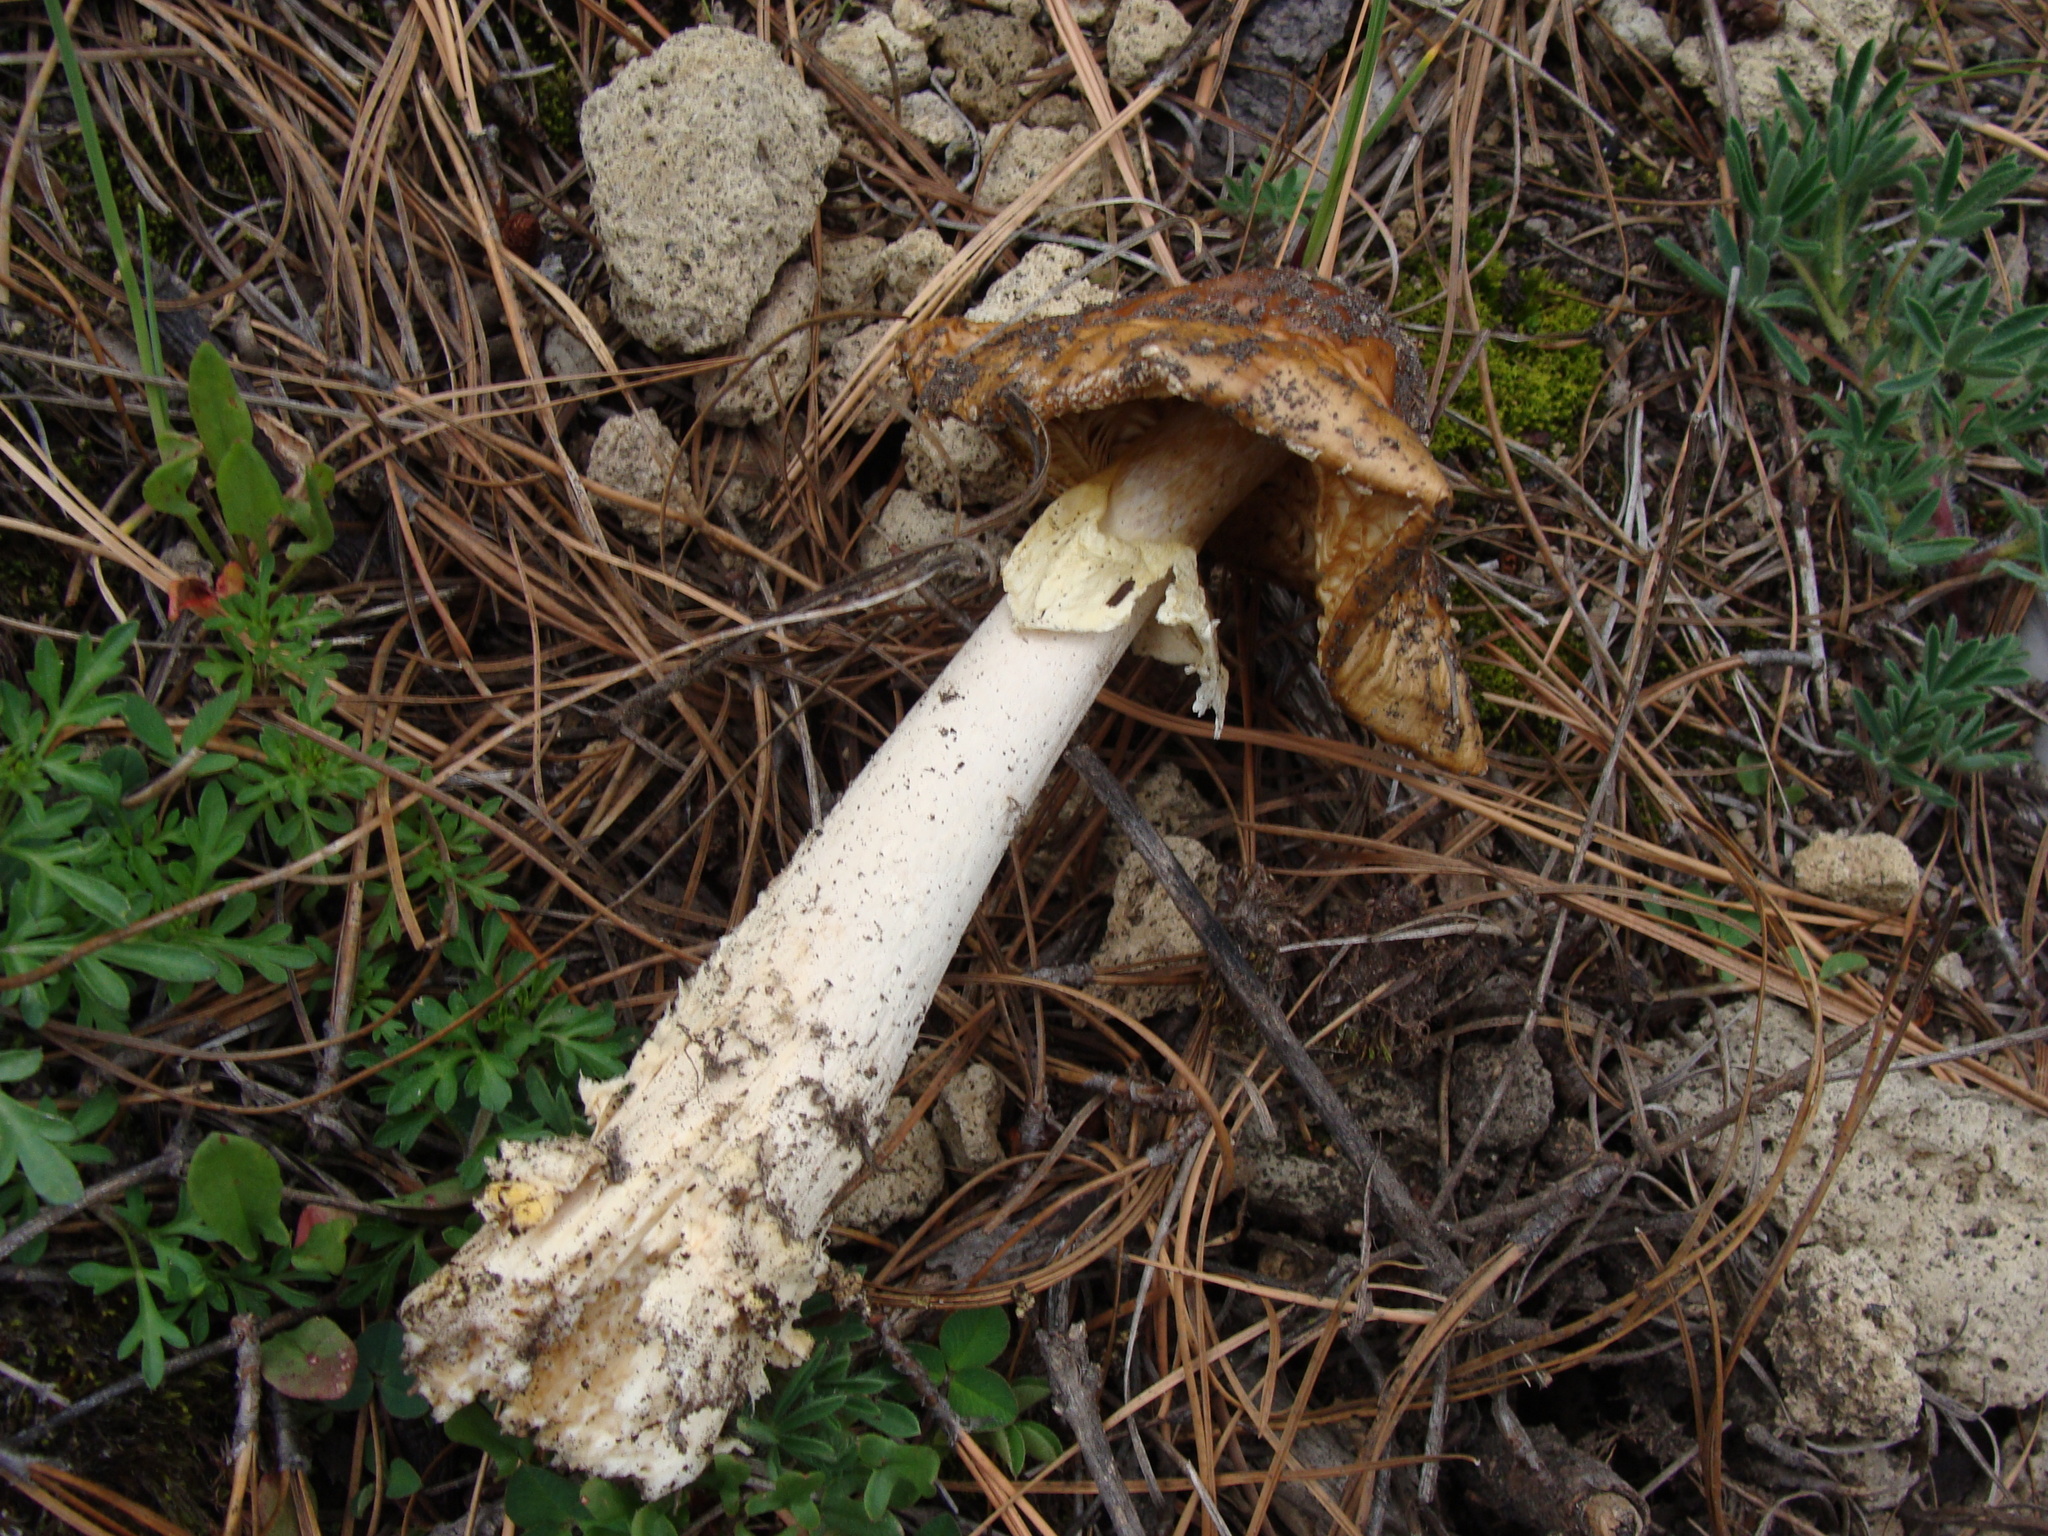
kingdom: Fungi
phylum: Basidiomycota
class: Agaricomycetes
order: Agaricales
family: Amanitaceae
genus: Amanita
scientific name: Amanita muscaria
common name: Fly agaric
